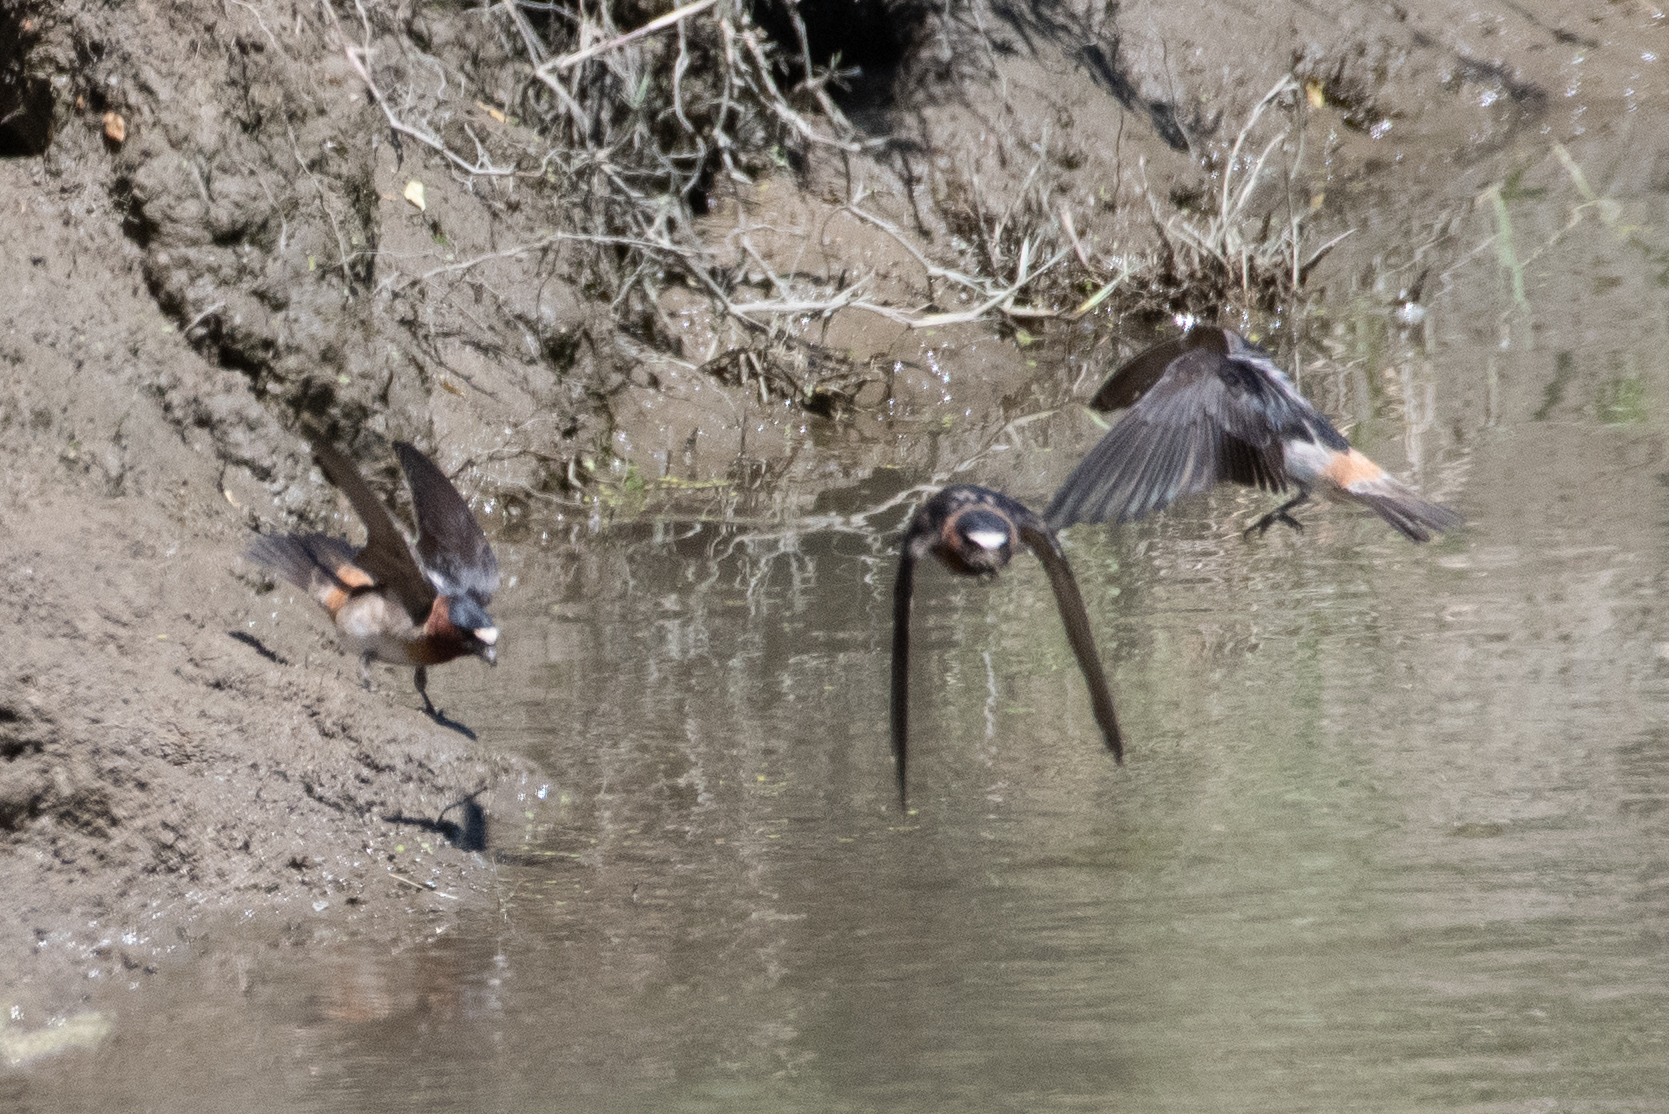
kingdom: Animalia
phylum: Chordata
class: Aves
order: Passeriformes
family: Hirundinidae
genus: Petrochelidon
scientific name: Petrochelidon pyrrhonota
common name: American cliff swallow
